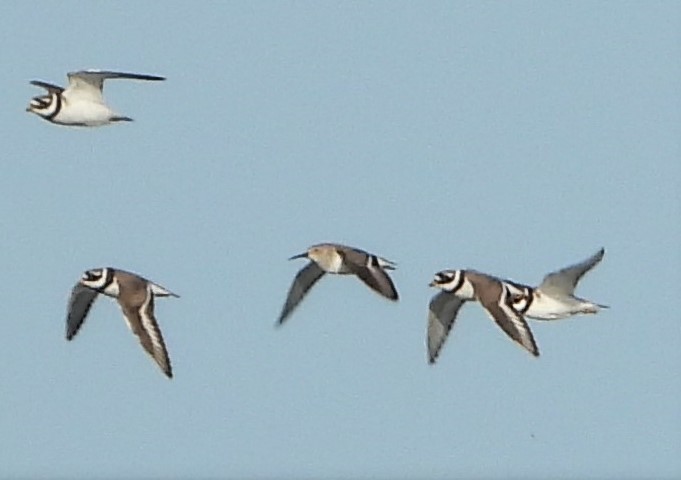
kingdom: Animalia
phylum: Chordata
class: Aves
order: Charadriiformes
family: Charadriidae
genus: Charadrius
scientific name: Charadrius hiaticula
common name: Common ringed plover
